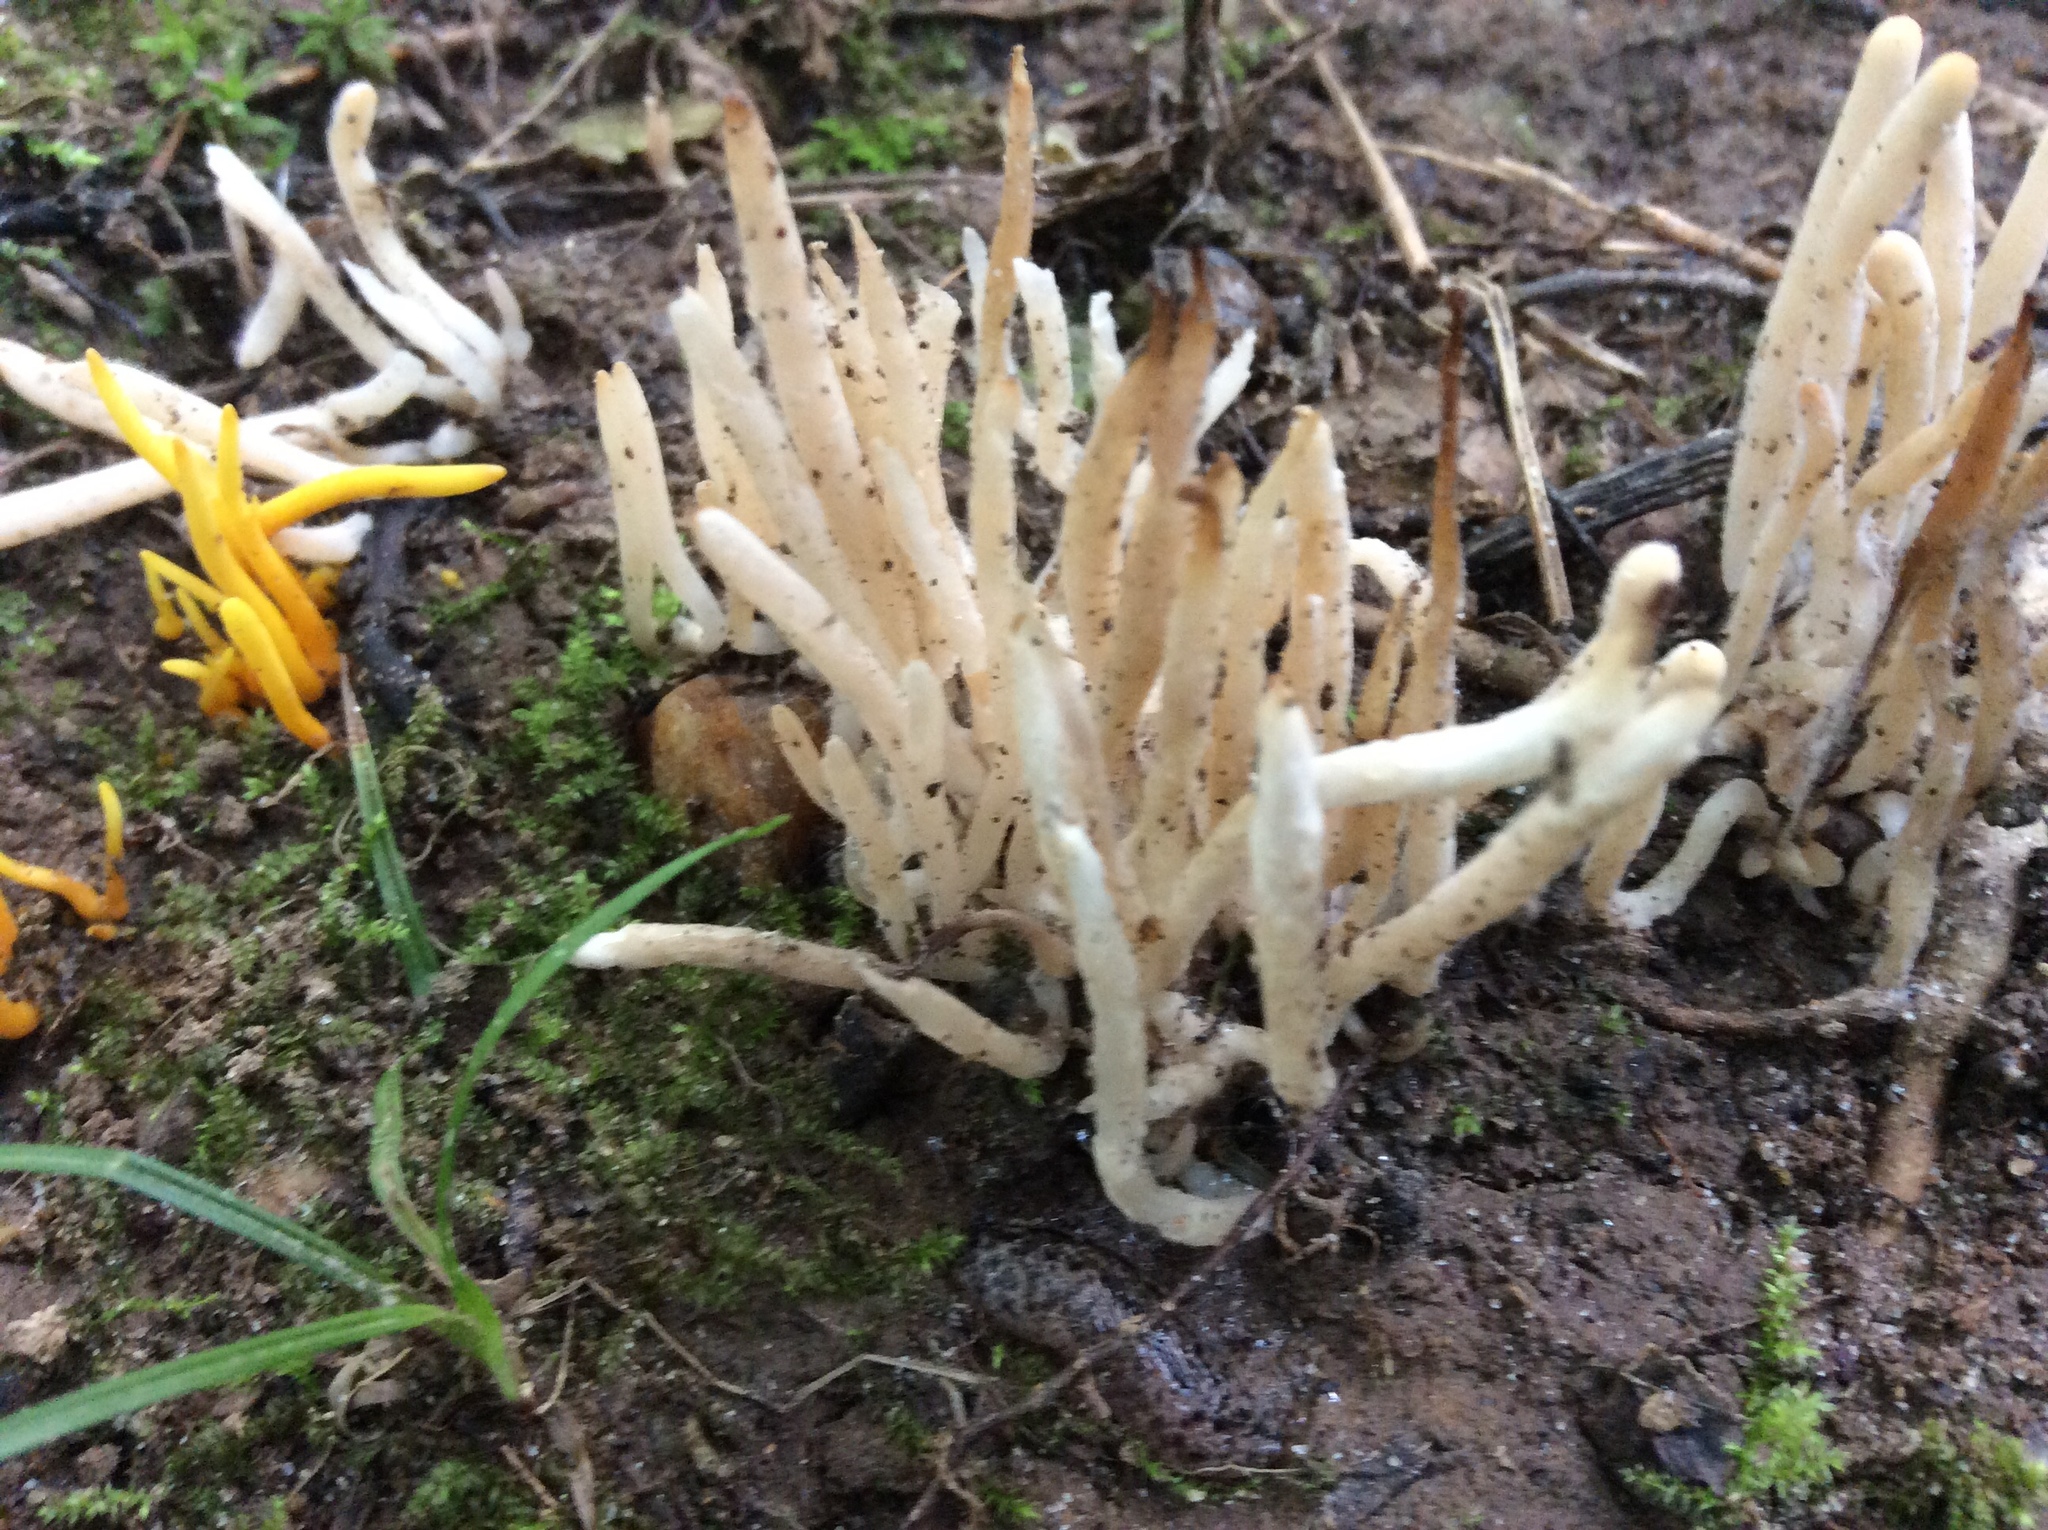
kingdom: Fungi
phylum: Basidiomycota
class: Agaricomycetes
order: Agaricales
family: Clavariaceae
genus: Clavaria
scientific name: Clavaria fragilis
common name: White spindles
